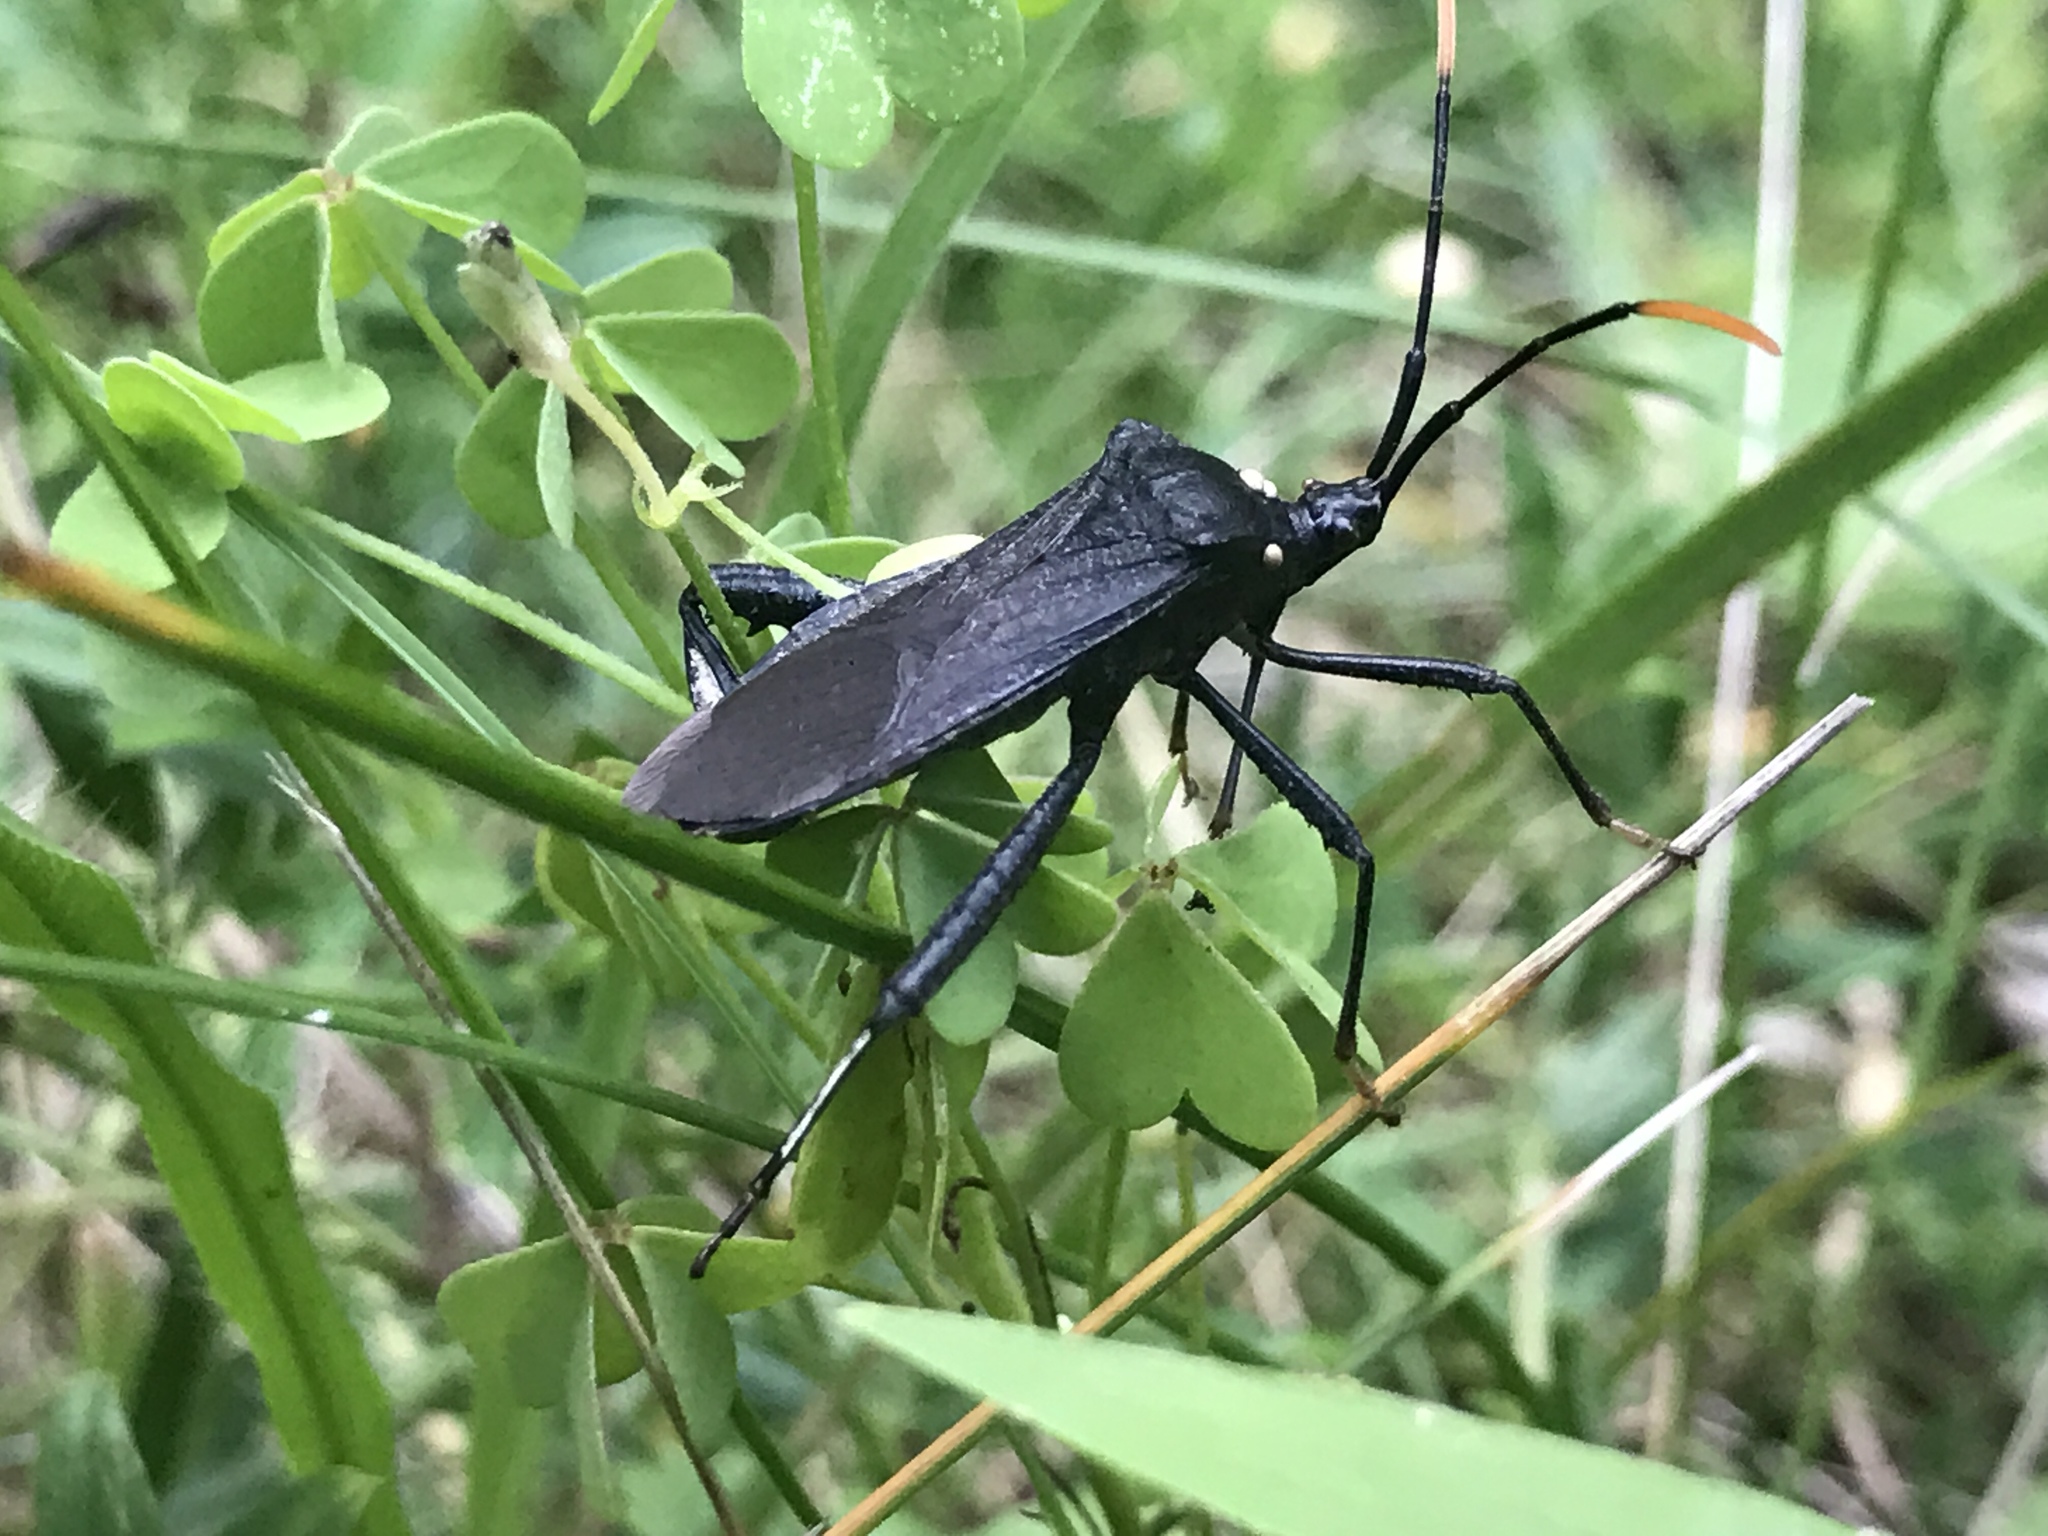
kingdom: Animalia
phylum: Arthropoda
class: Insecta
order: Hemiptera
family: Coreidae
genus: Acanthocephala
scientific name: Acanthocephala terminalis
